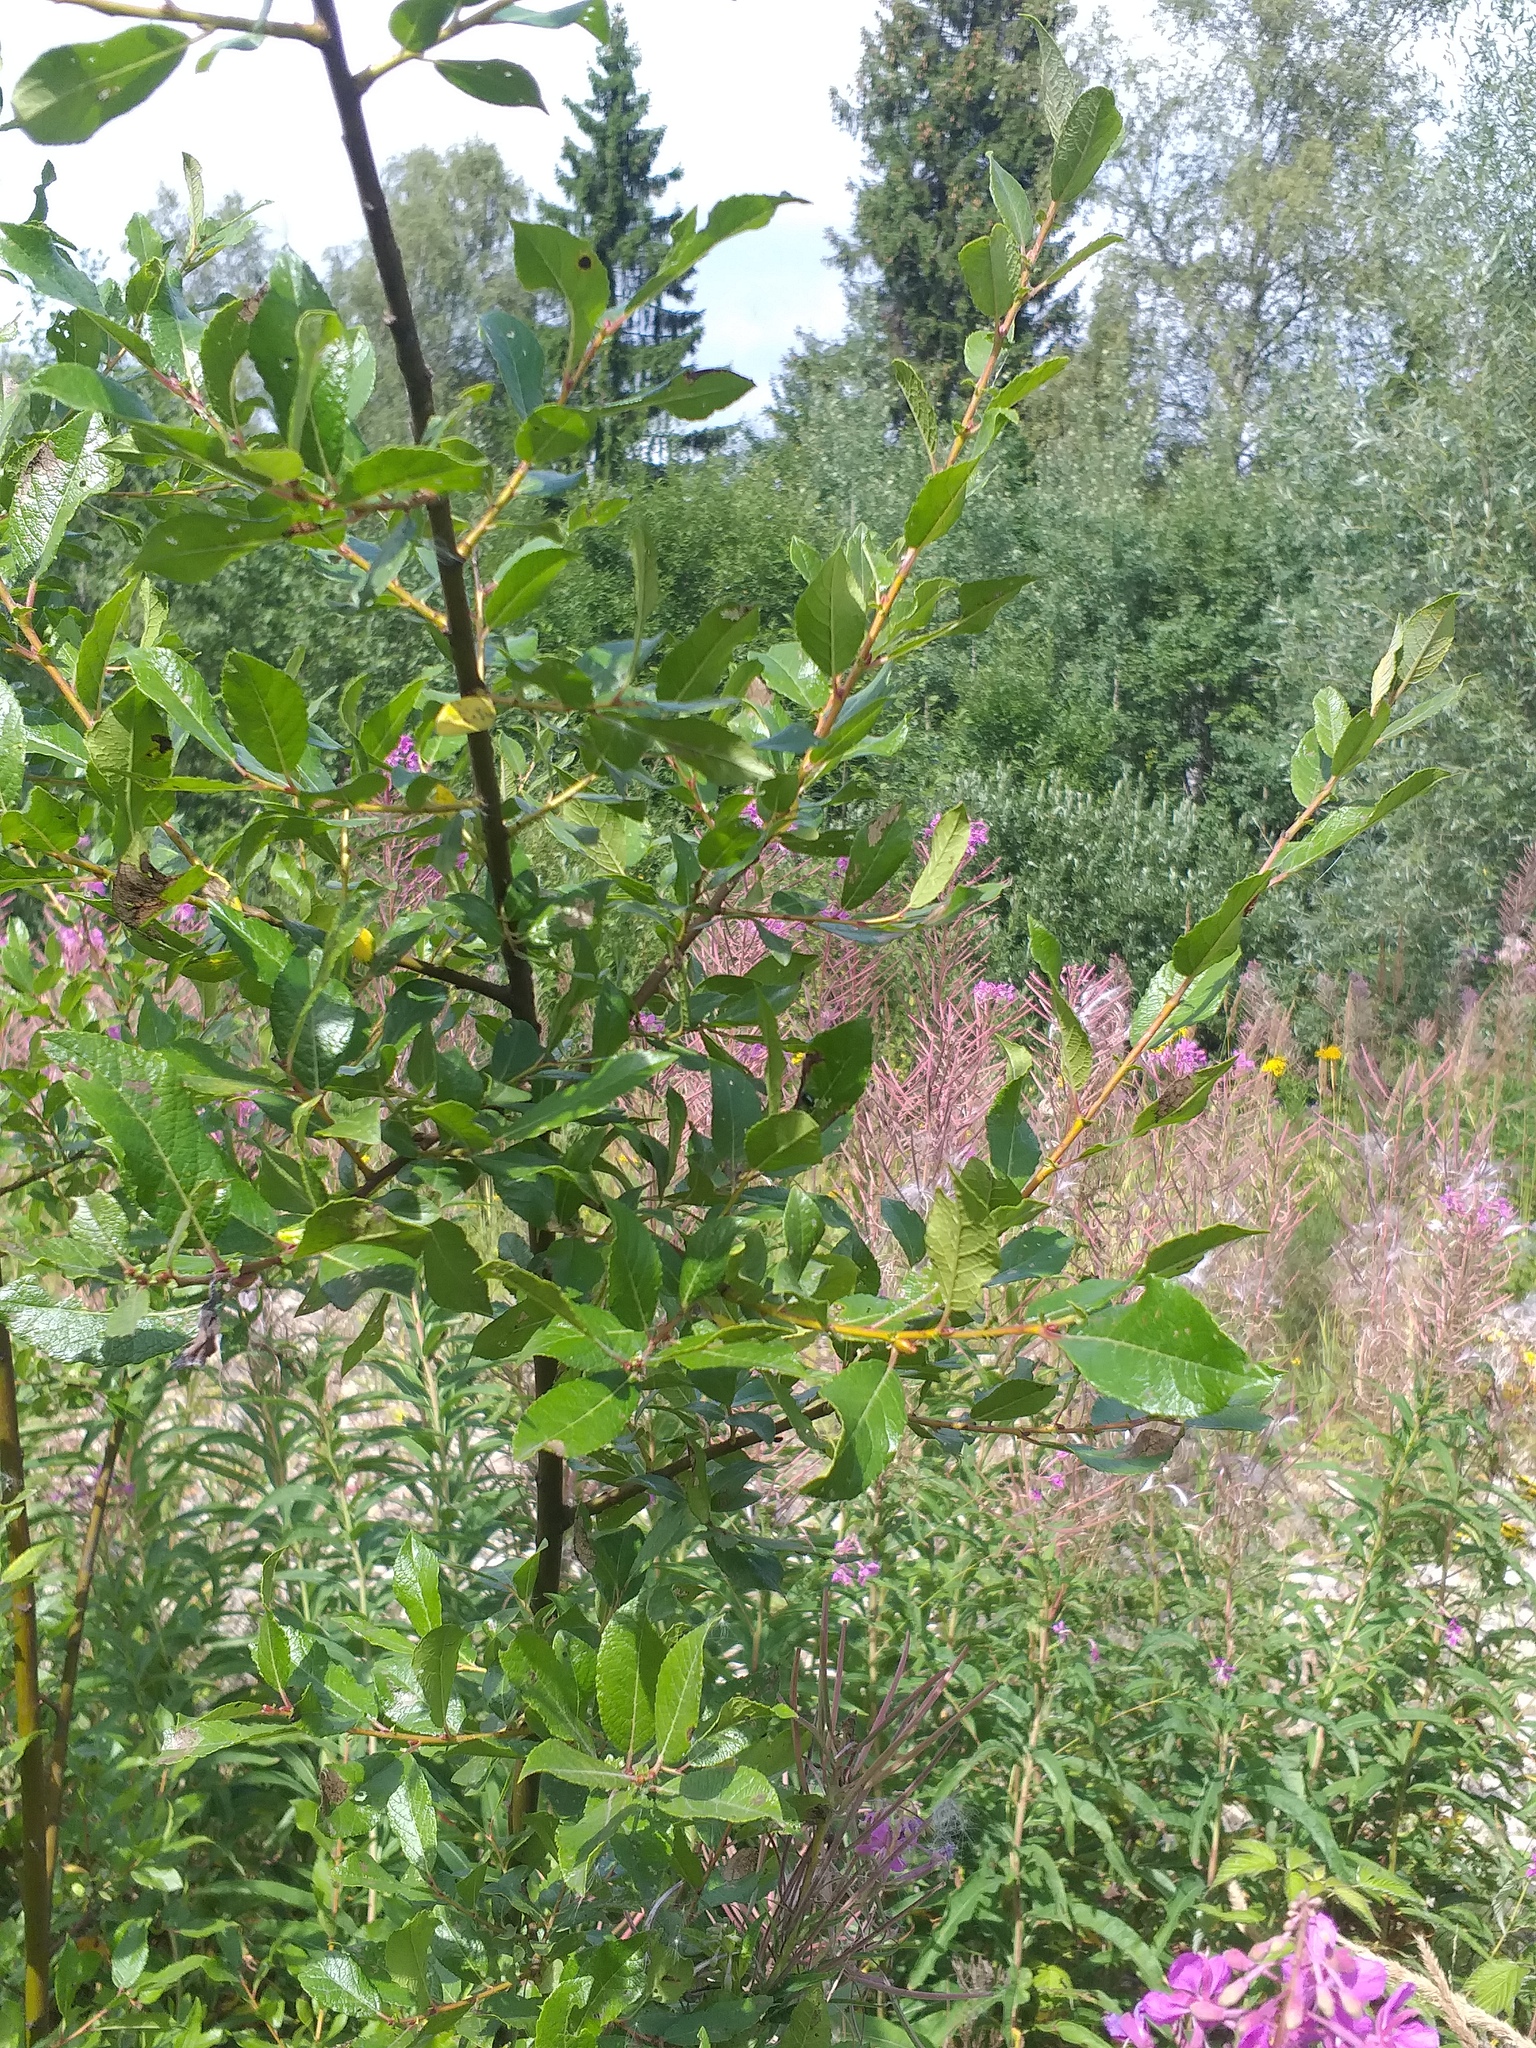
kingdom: Plantae
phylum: Tracheophyta
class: Magnoliopsida
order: Malpighiales
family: Salicaceae
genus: Salix
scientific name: Salix myrsinifolia
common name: Dark-leaved willow
